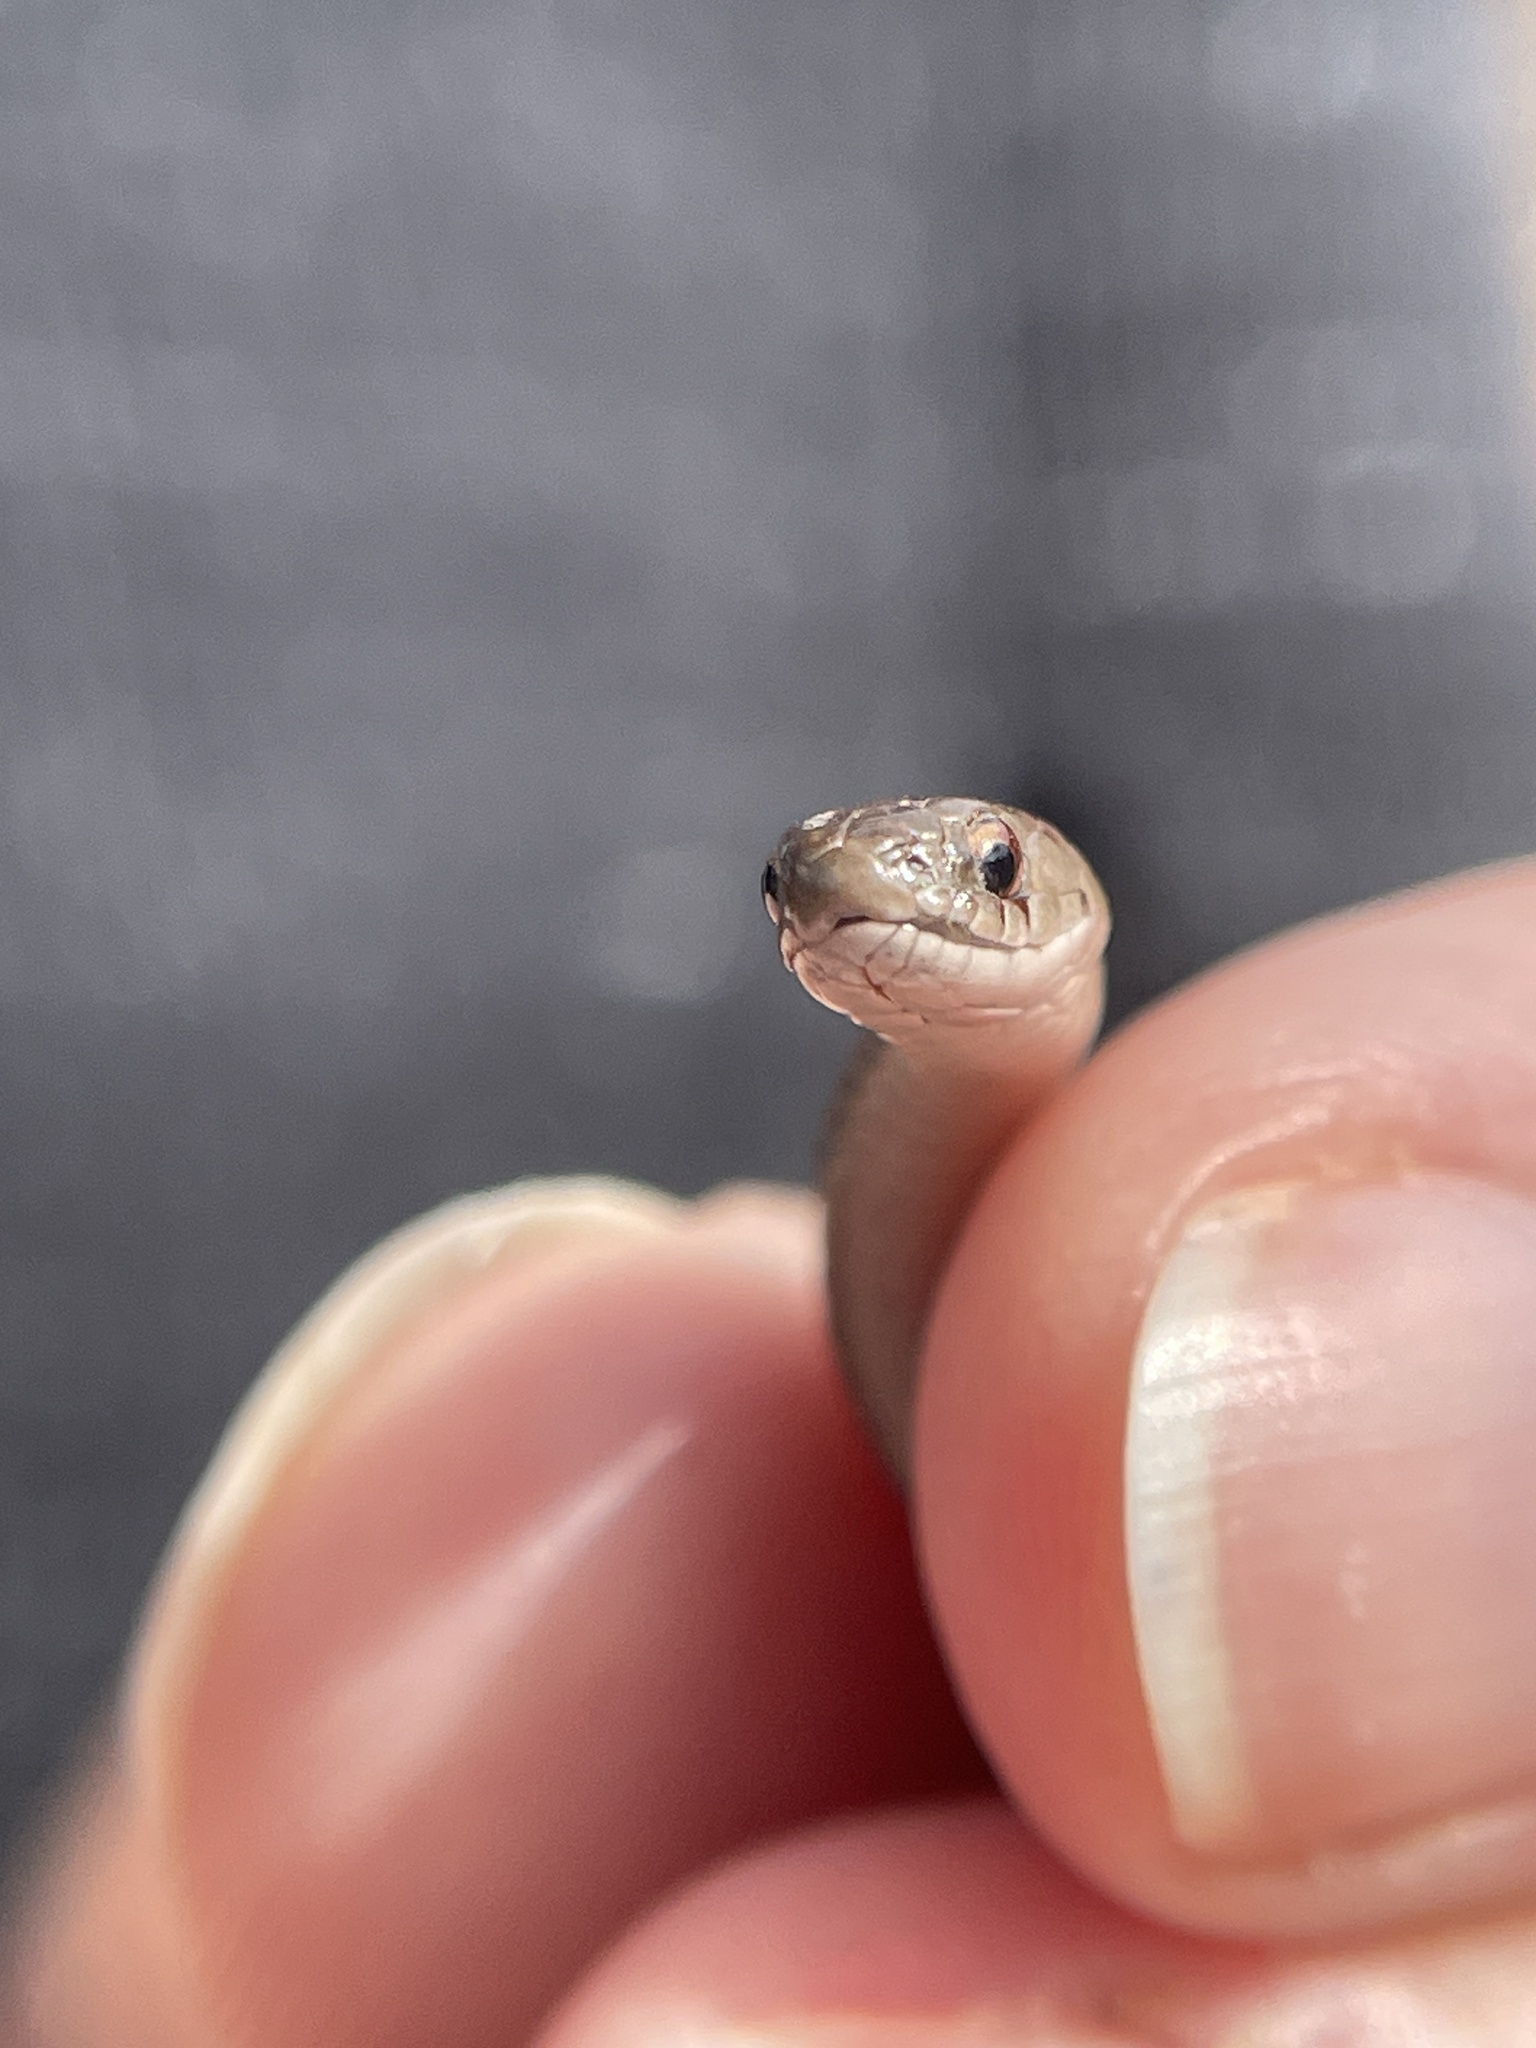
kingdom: Animalia
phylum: Chordata
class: Squamata
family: Colubridae
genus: Storeria
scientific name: Storeria dekayi
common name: (dekay’s) brown snake
